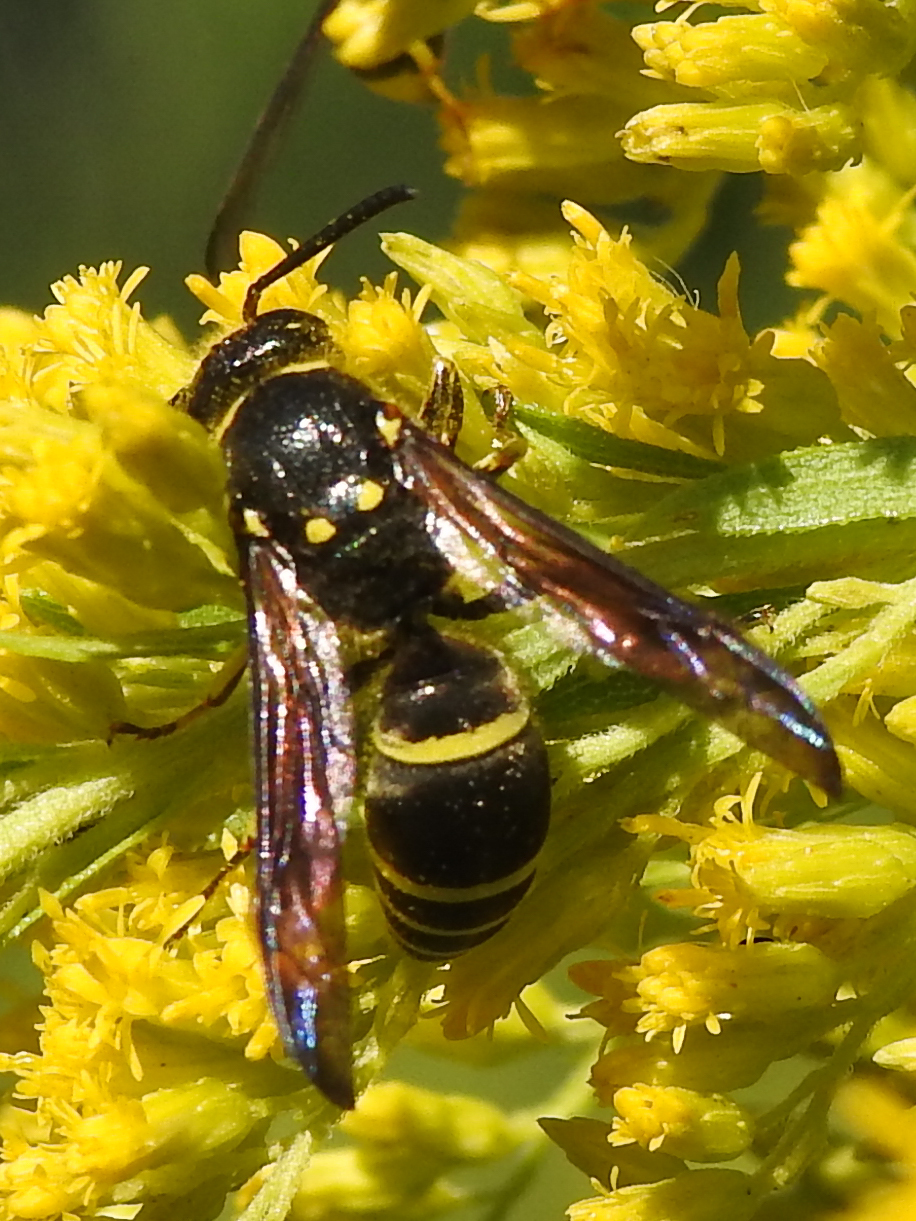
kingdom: Animalia
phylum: Arthropoda
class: Insecta
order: Hymenoptera
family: Vespidae
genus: Ancistrocerus
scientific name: Ancistrocerus
